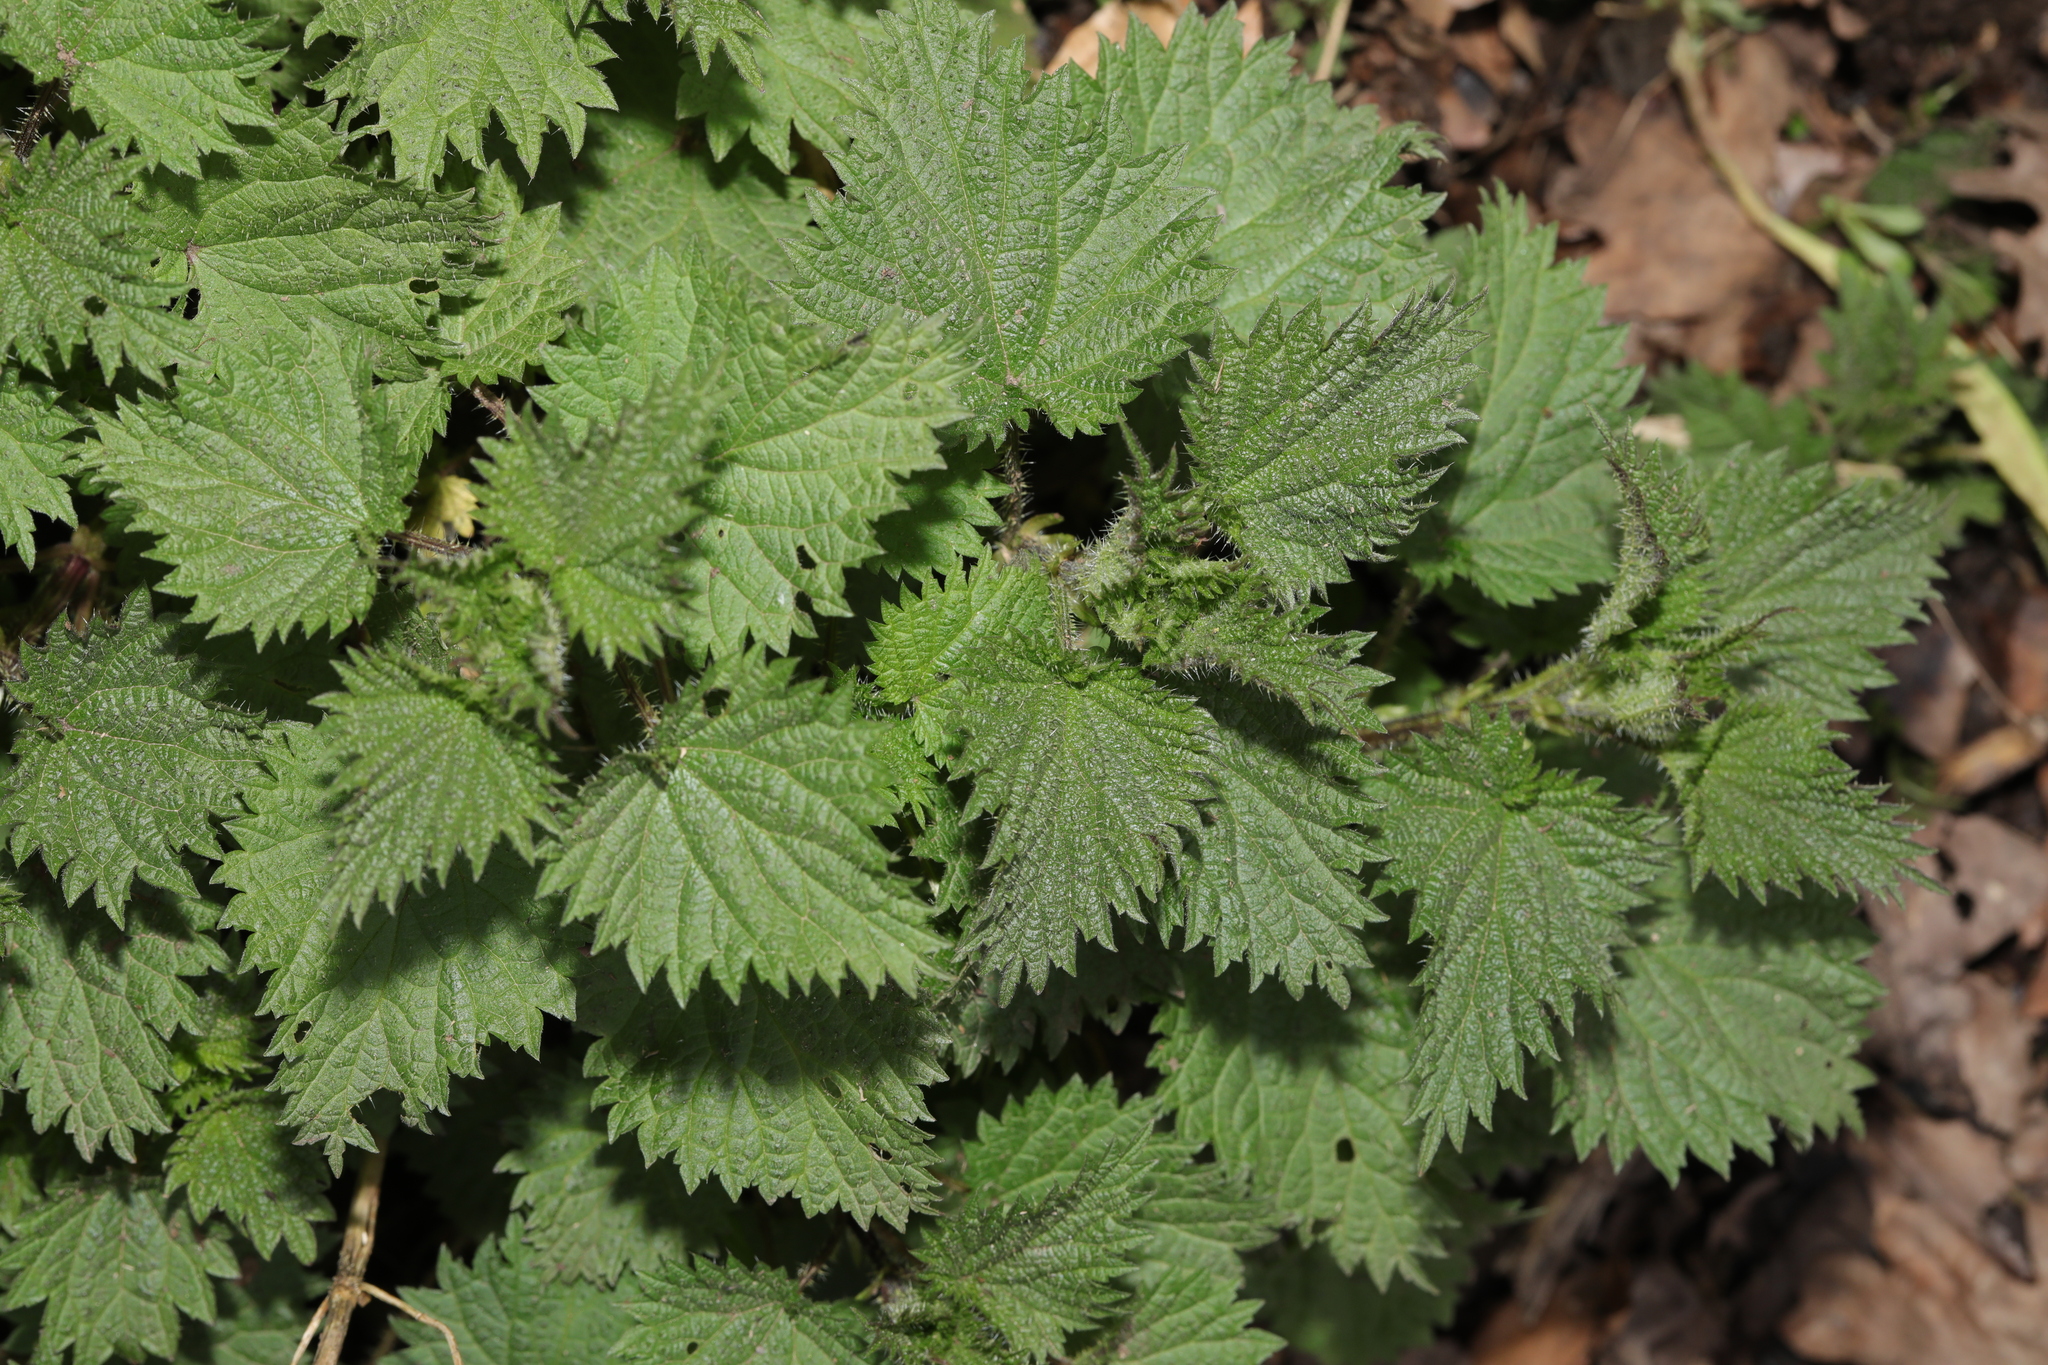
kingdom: Plantae
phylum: Tracheophyta
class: Magnoliopsida
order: Rosales
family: Urticaceae
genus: Urtica
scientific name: Urtica dioica
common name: Common nettle
